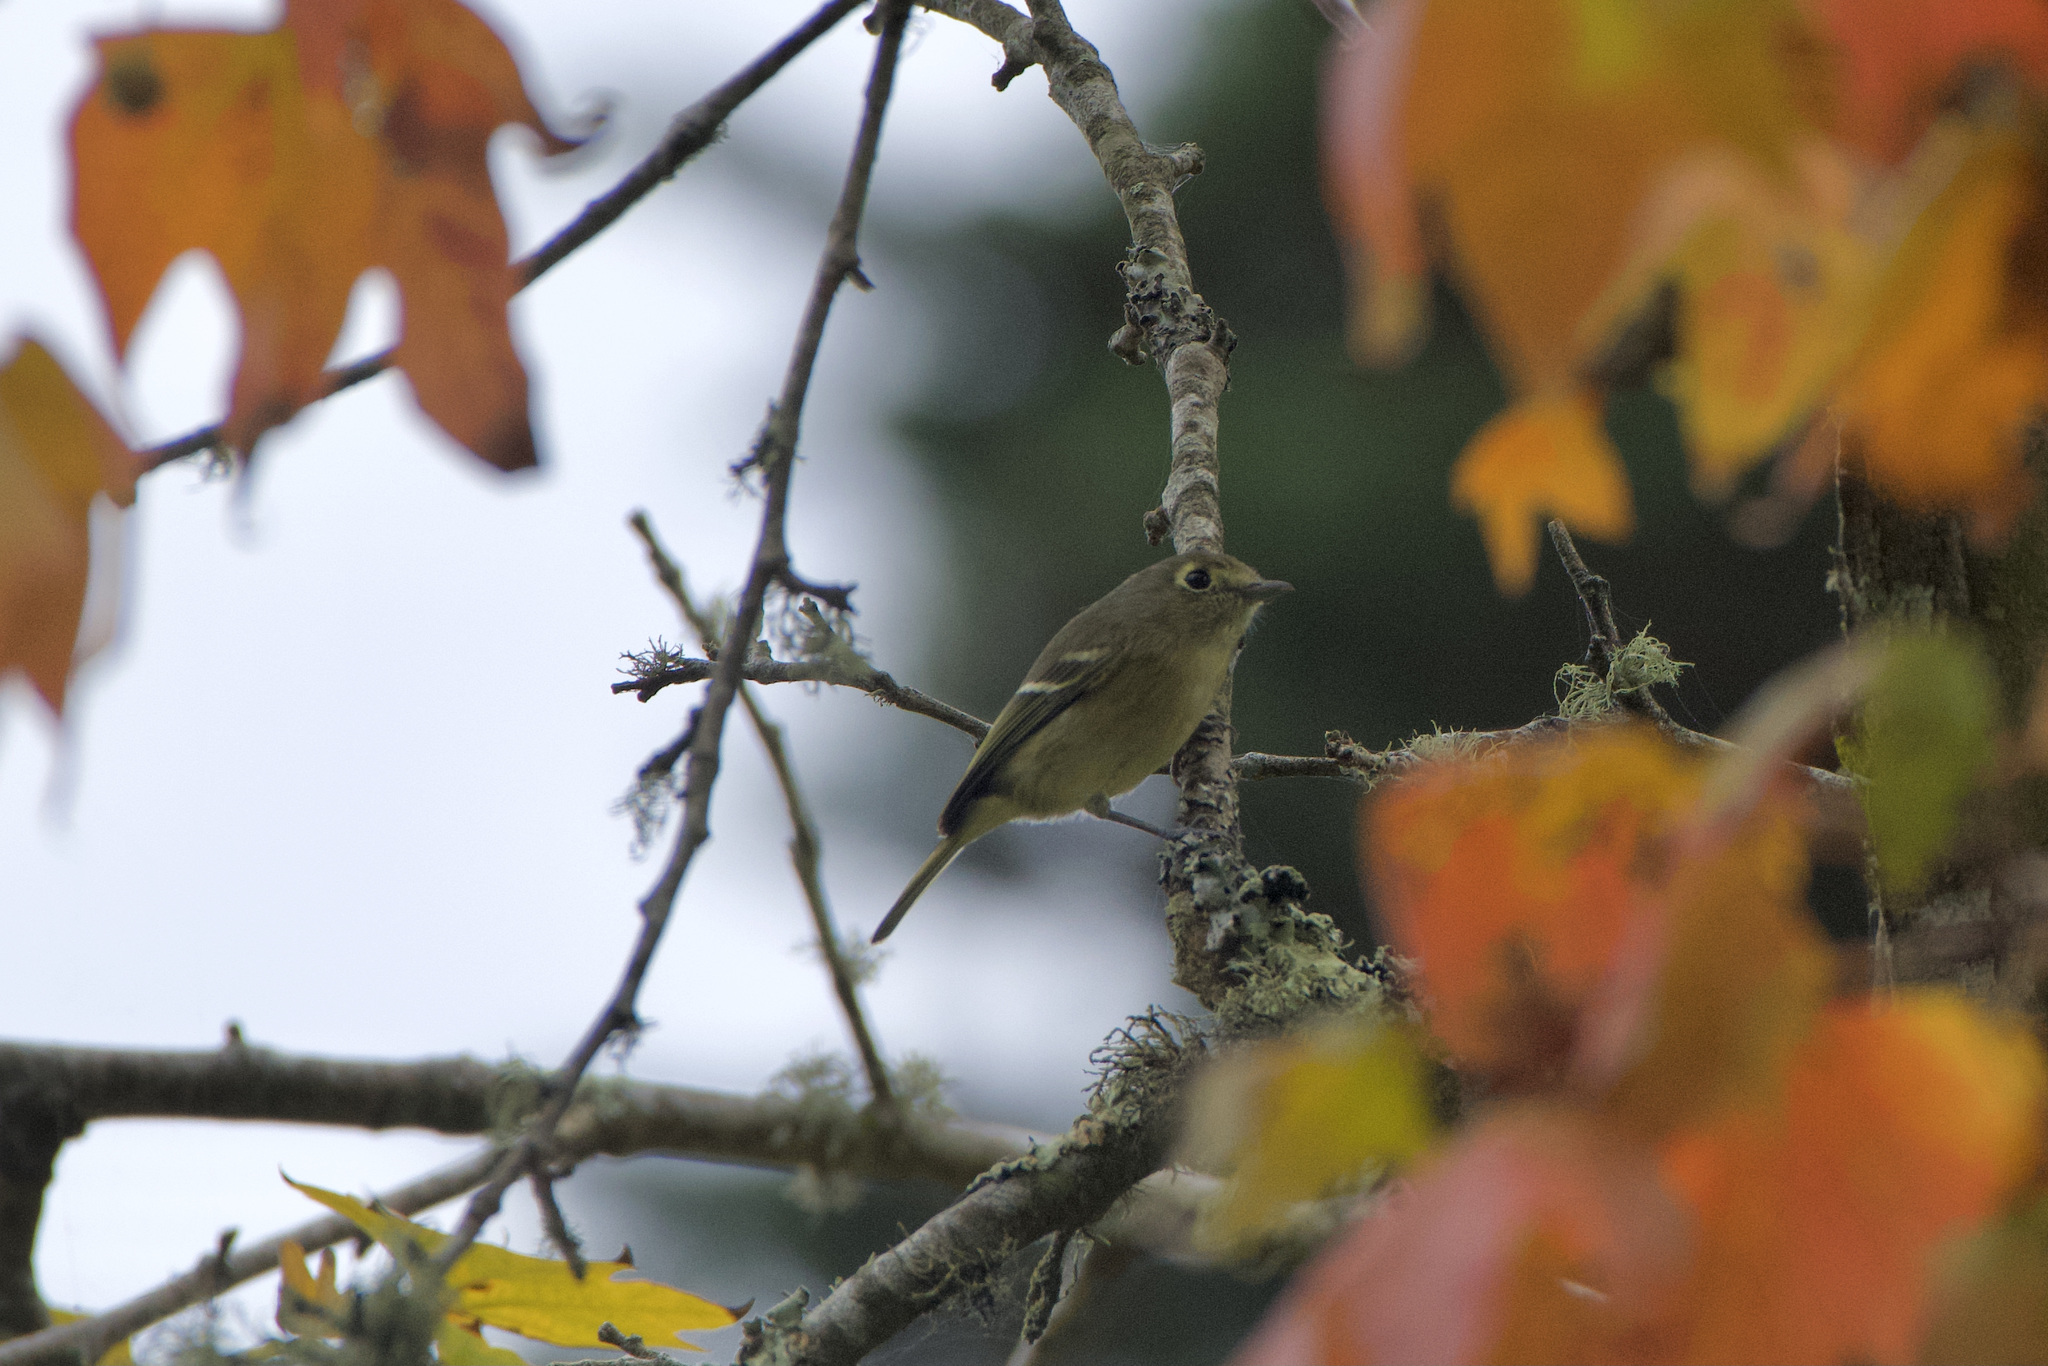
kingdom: Animalia
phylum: Chordata
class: Aves
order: Passeriformes
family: Vireonidae
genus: Vireo
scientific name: Vireo huttoni
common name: Hutton's vireo
